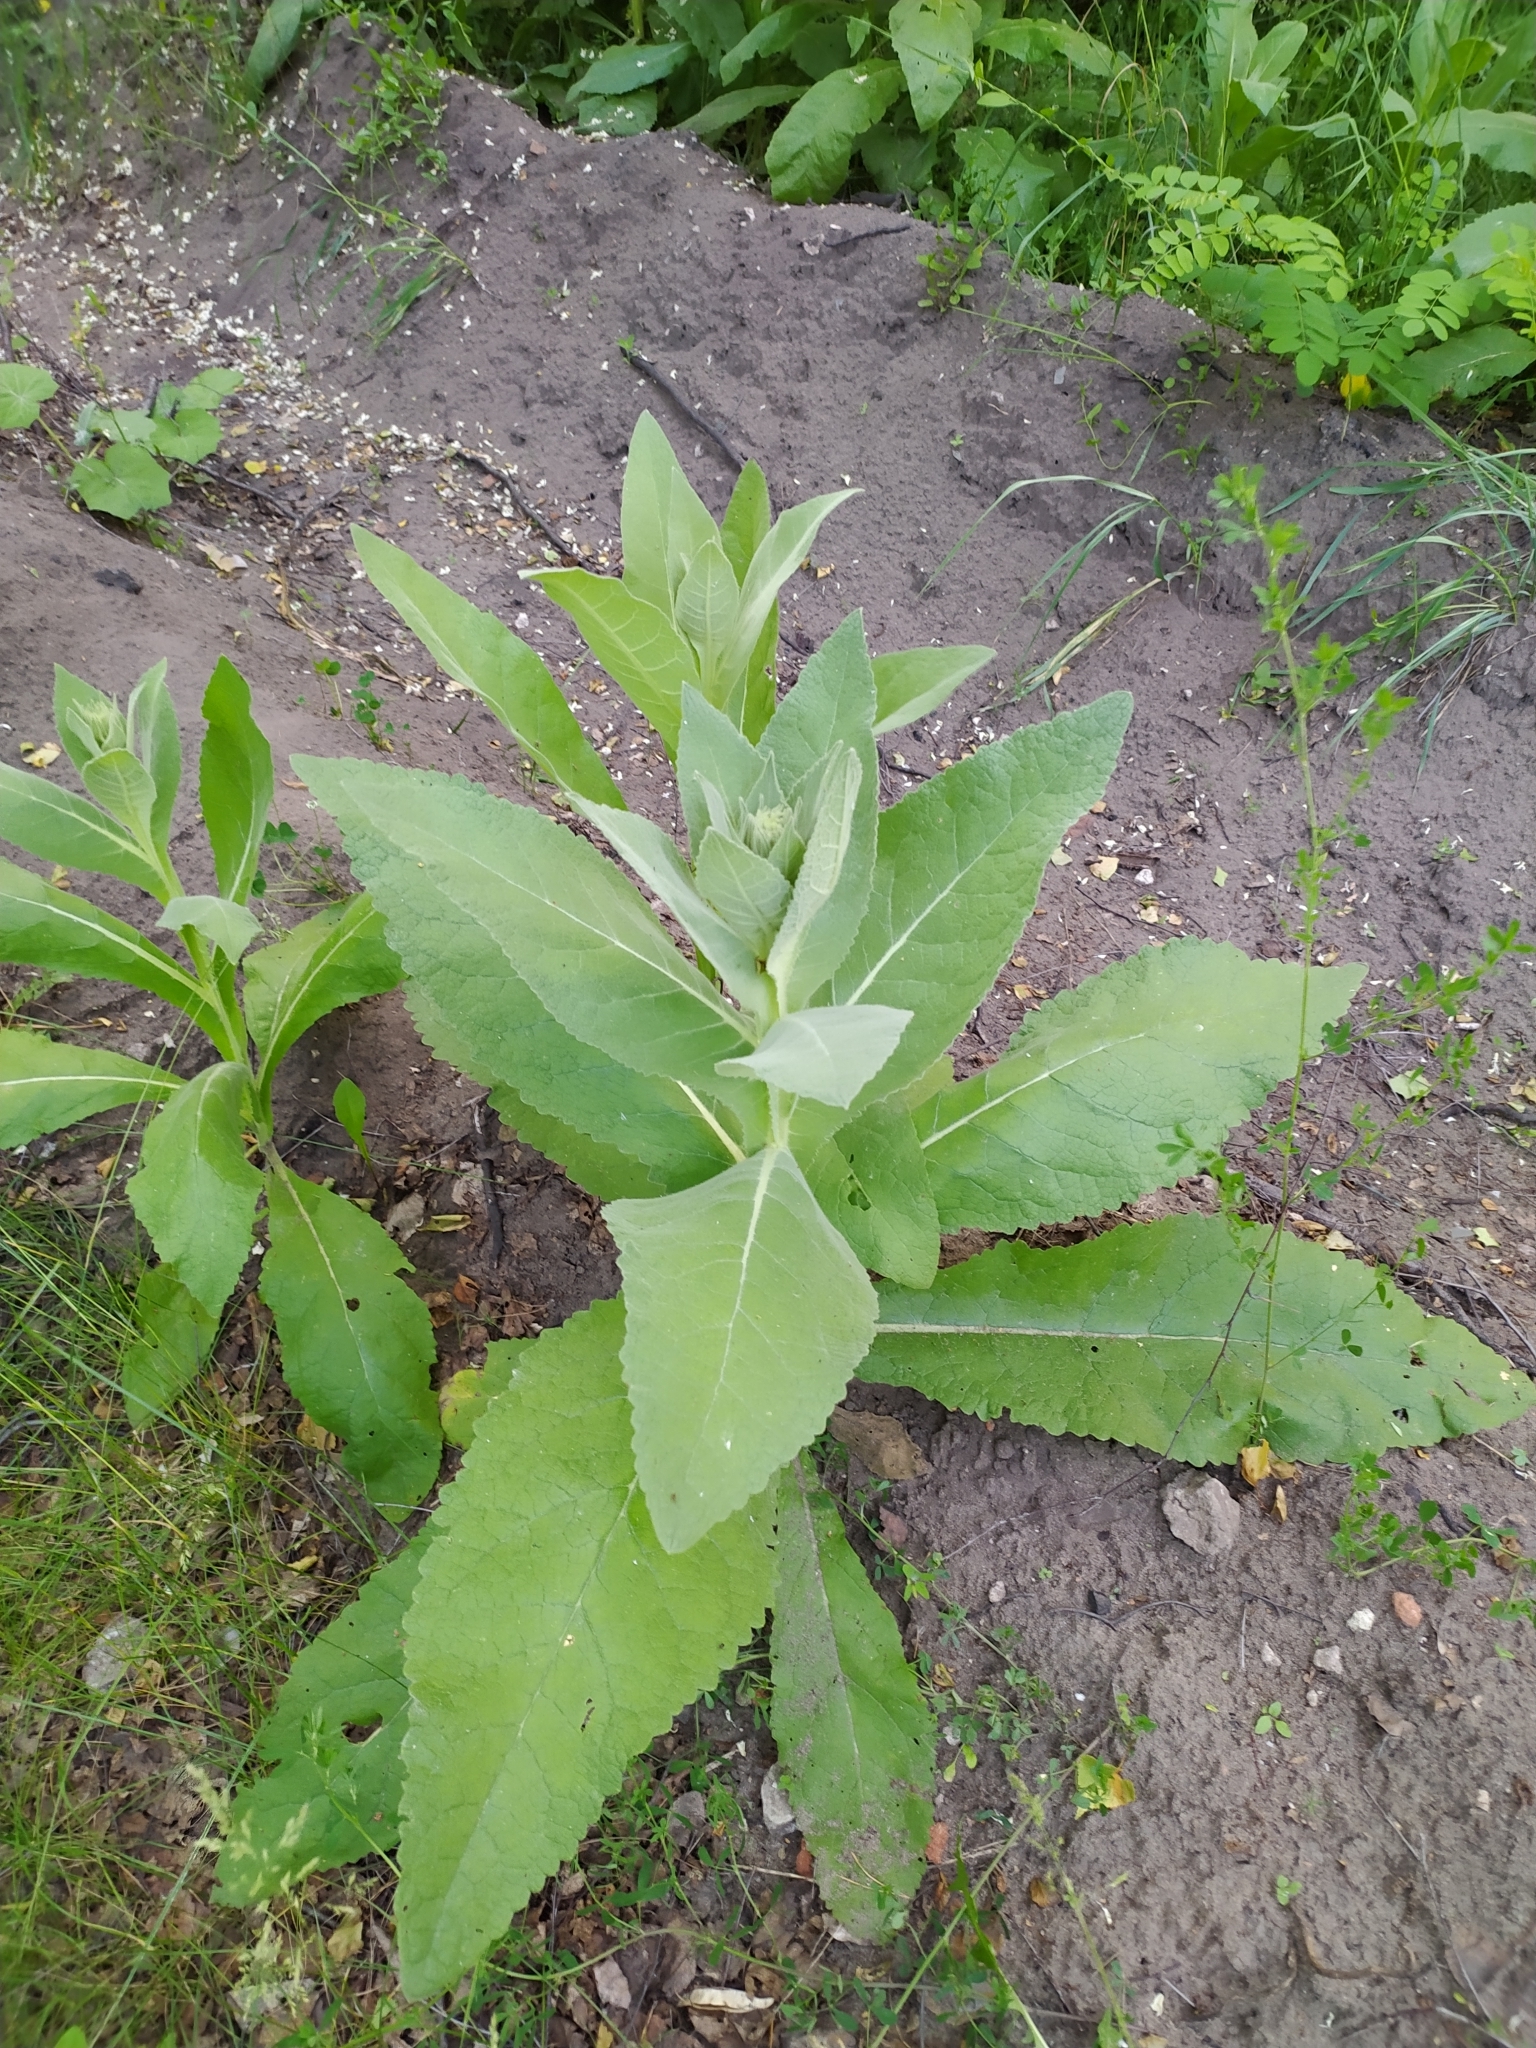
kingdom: Plantae
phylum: Tracheophyta
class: Magnoliopsida
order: Lamiales
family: Scrophulariaceae
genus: Verbascum
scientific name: Verbascum lychnitis
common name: White mullein
